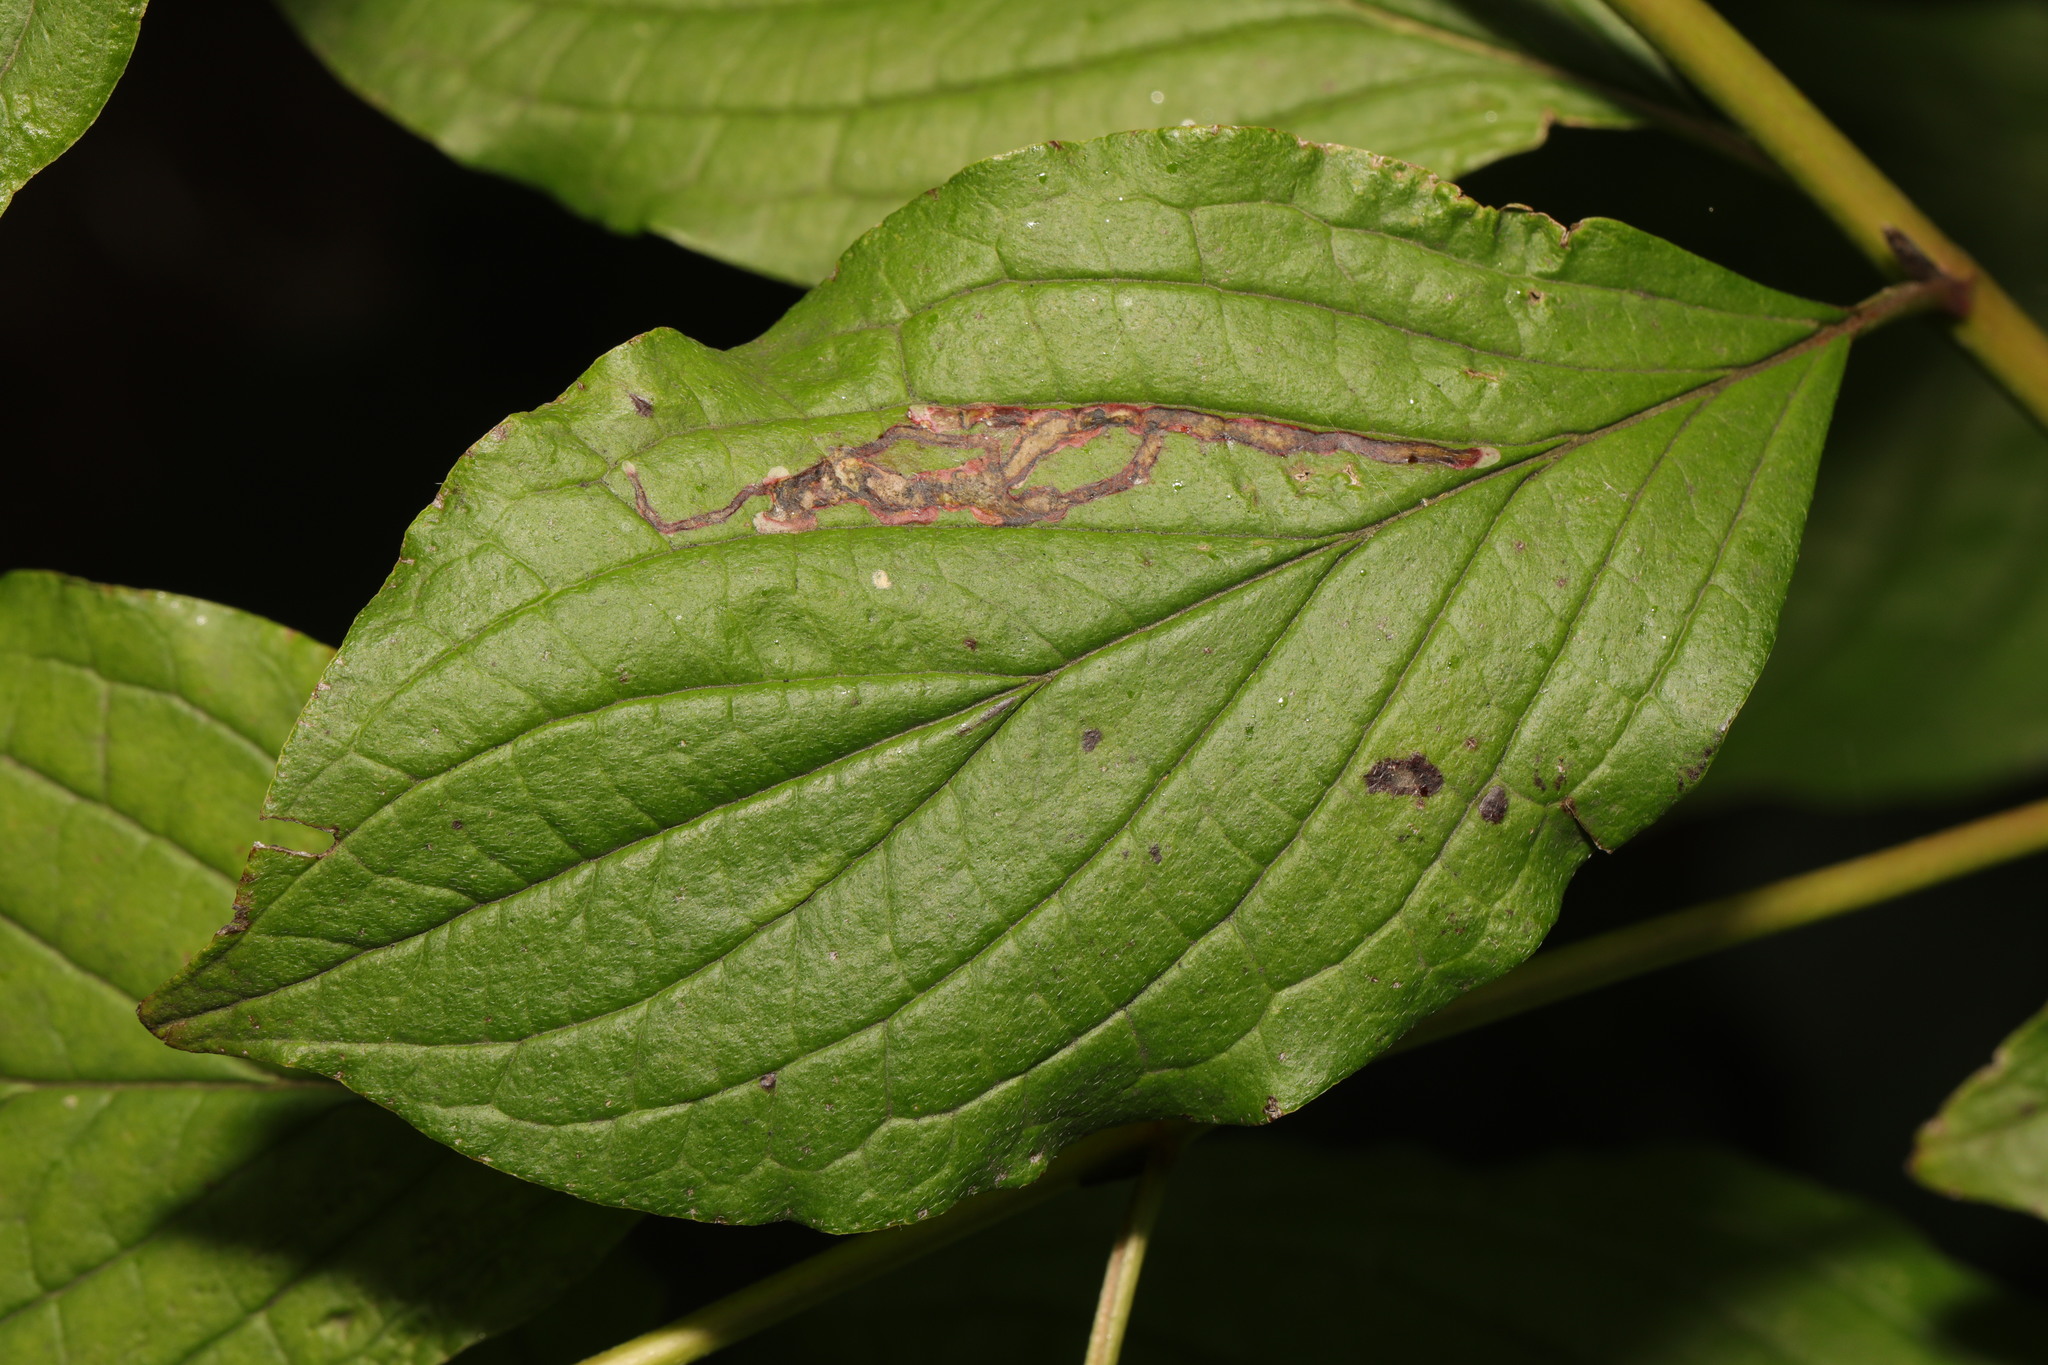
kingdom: Animalia
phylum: Arthropoda
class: Insecta
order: Diptera
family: Agromyzidae
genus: Phytomyza
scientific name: Phytomyza agromyzina
